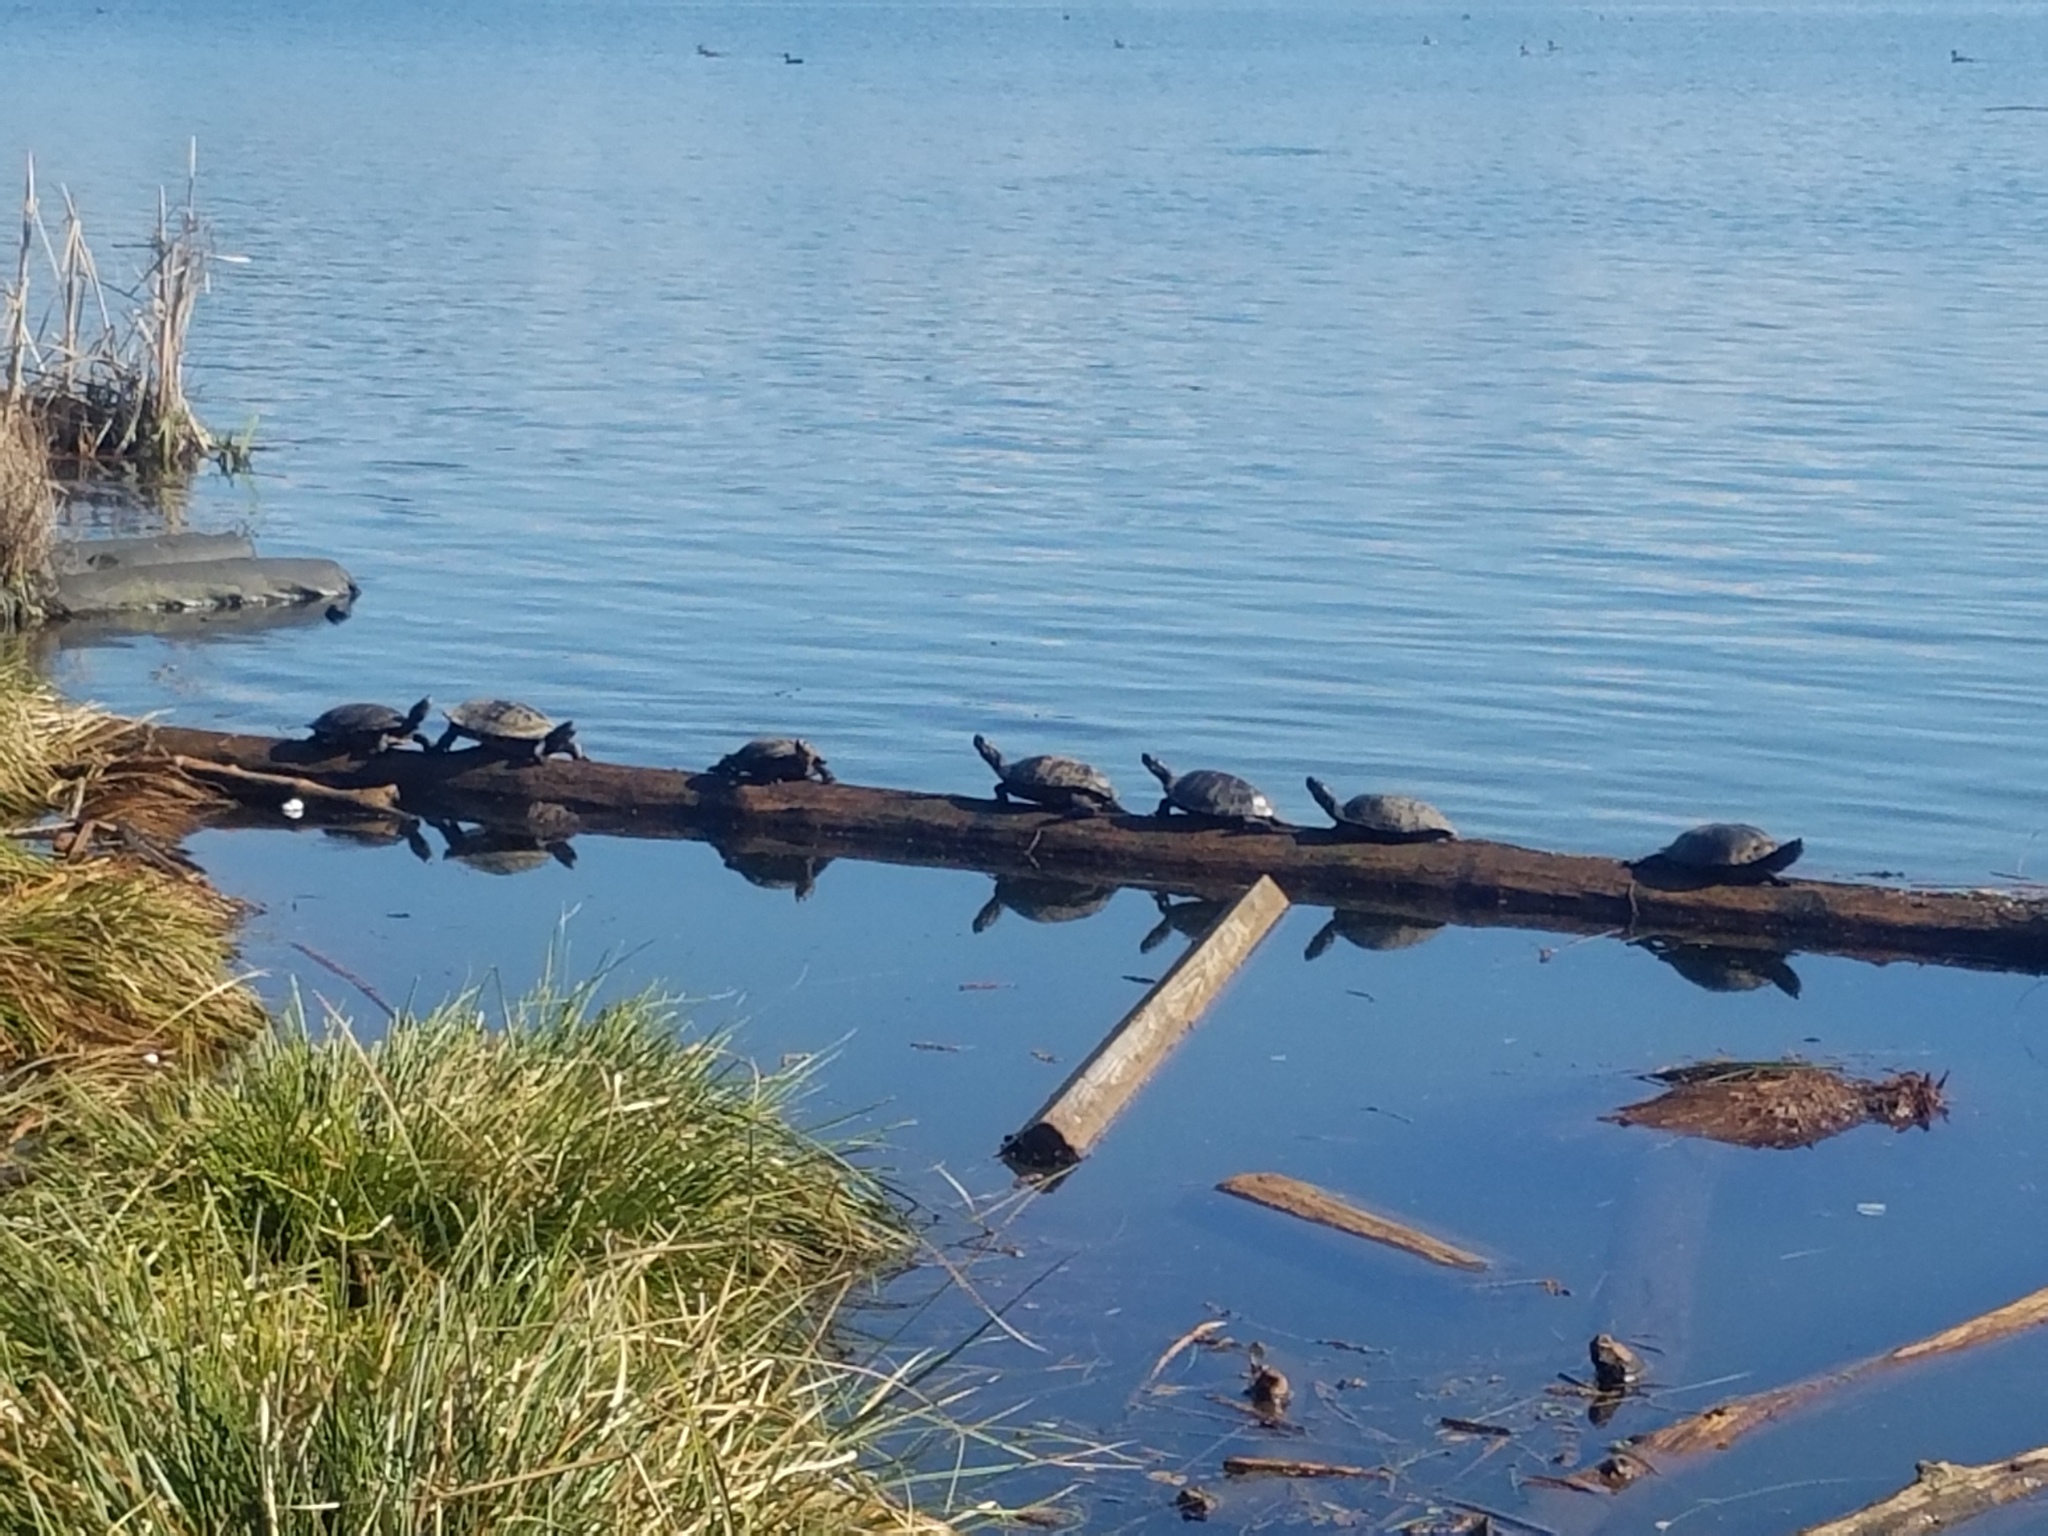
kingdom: Animalia
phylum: Chordata
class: Testudines
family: Emydidae
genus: Trachemys
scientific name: Trachemys scripta
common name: Slider
